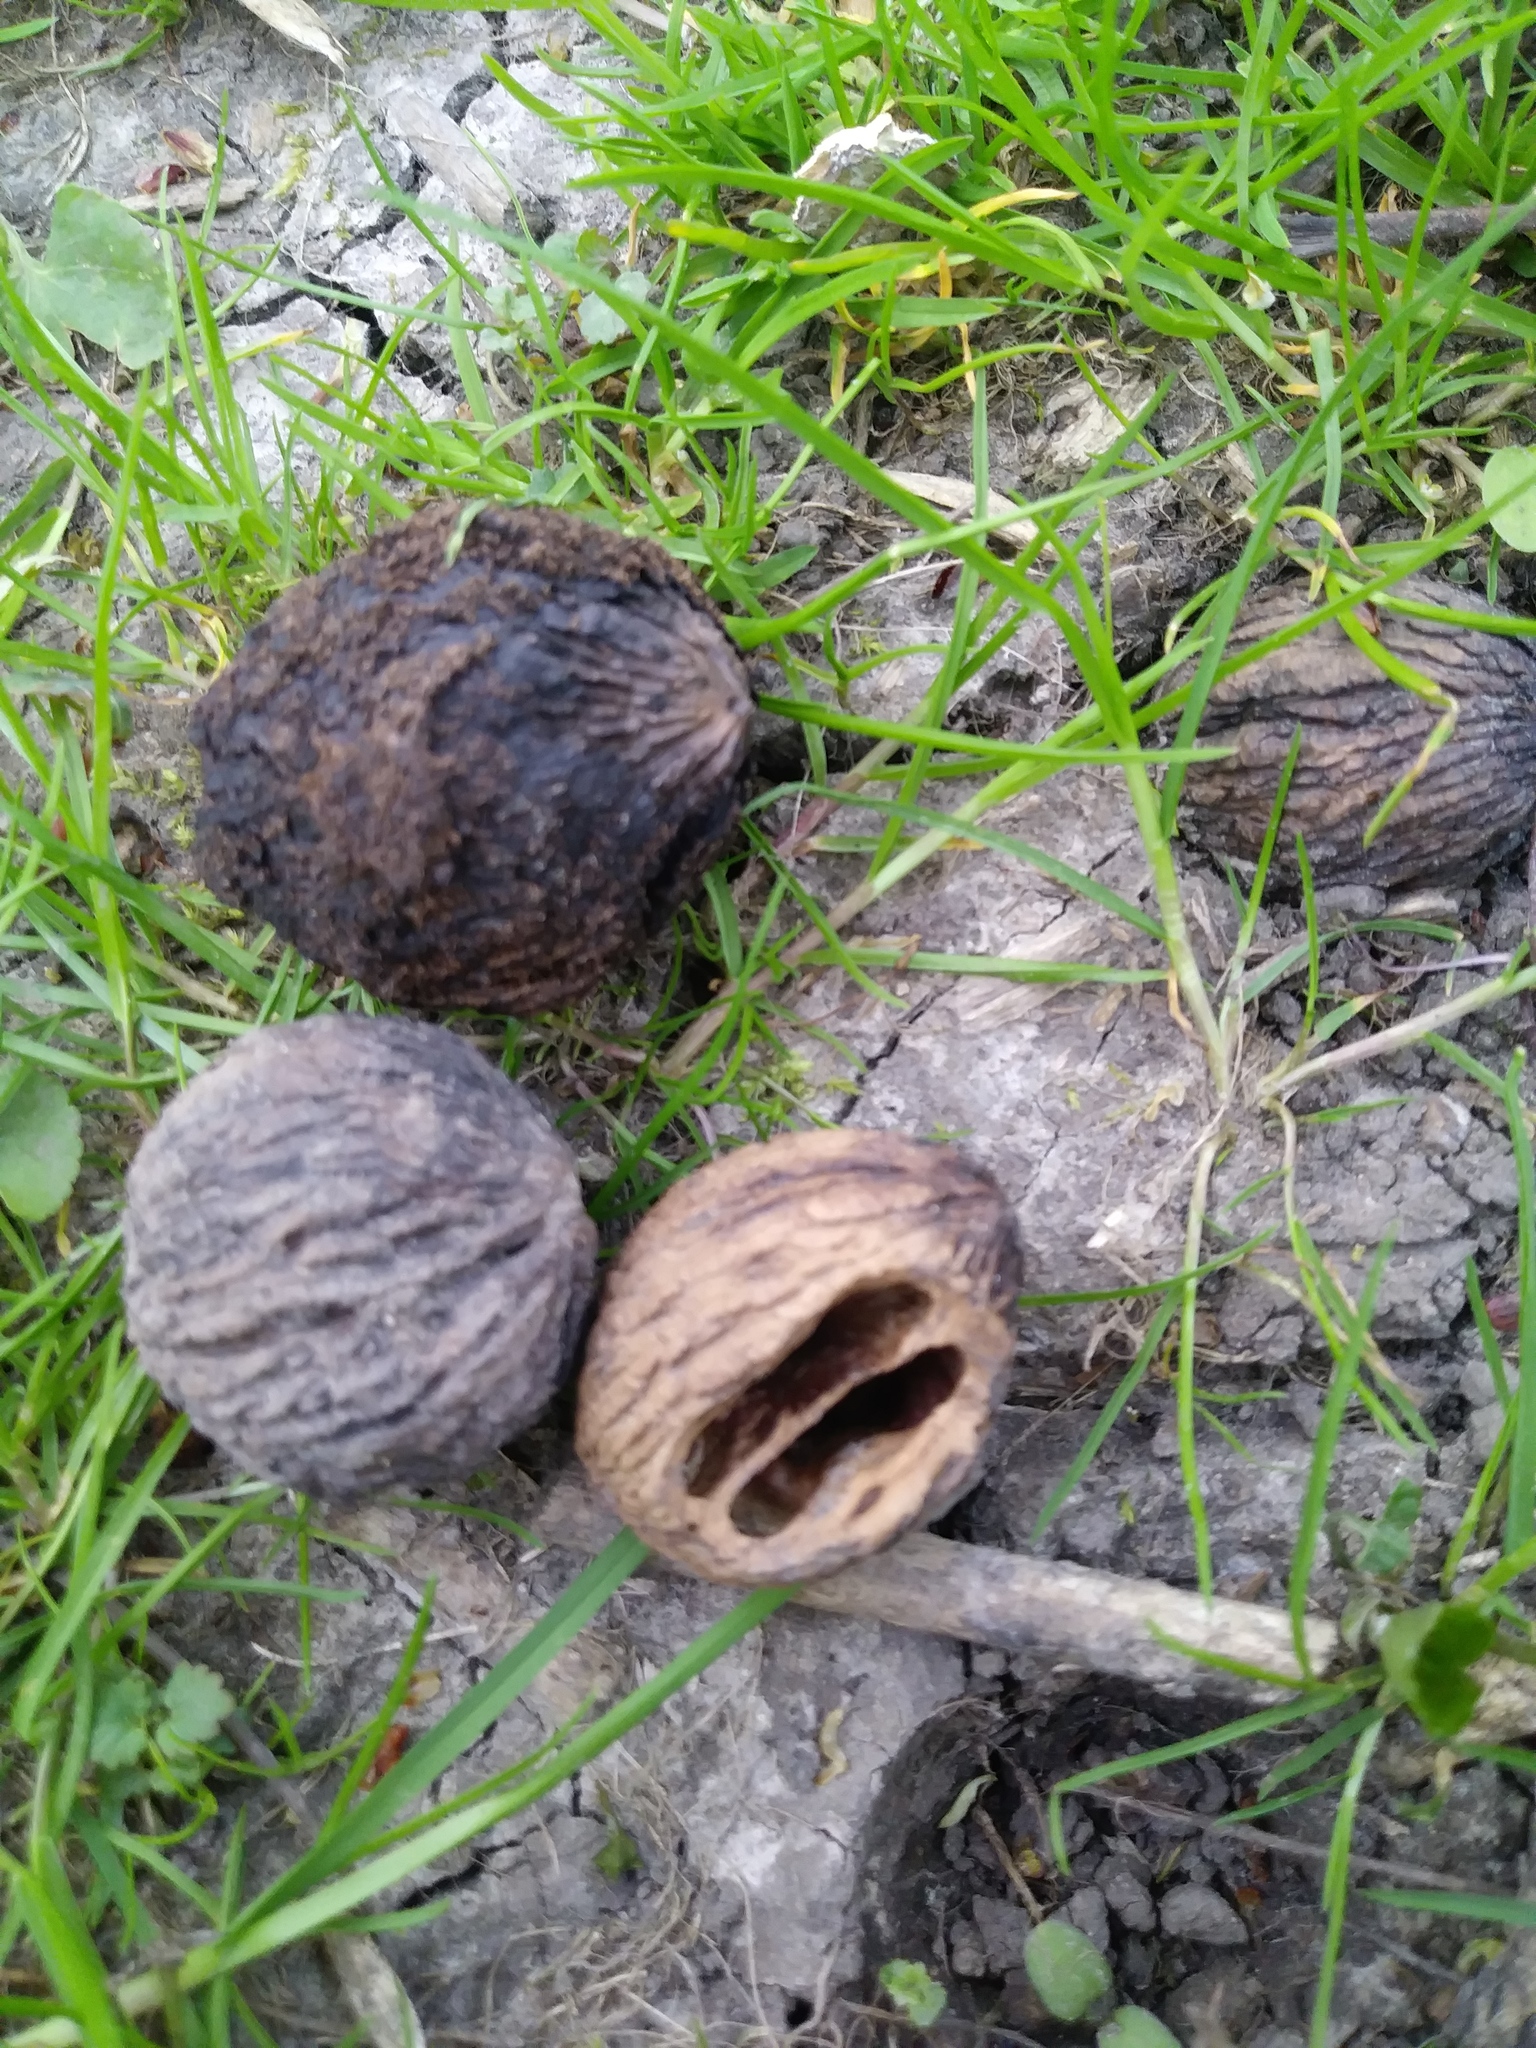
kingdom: Plantae
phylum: Tracheophyta
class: Magnoliopsida
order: Fagales
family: Juglandaceae
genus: Juglans
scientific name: Juglans nigra
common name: Black walnut
